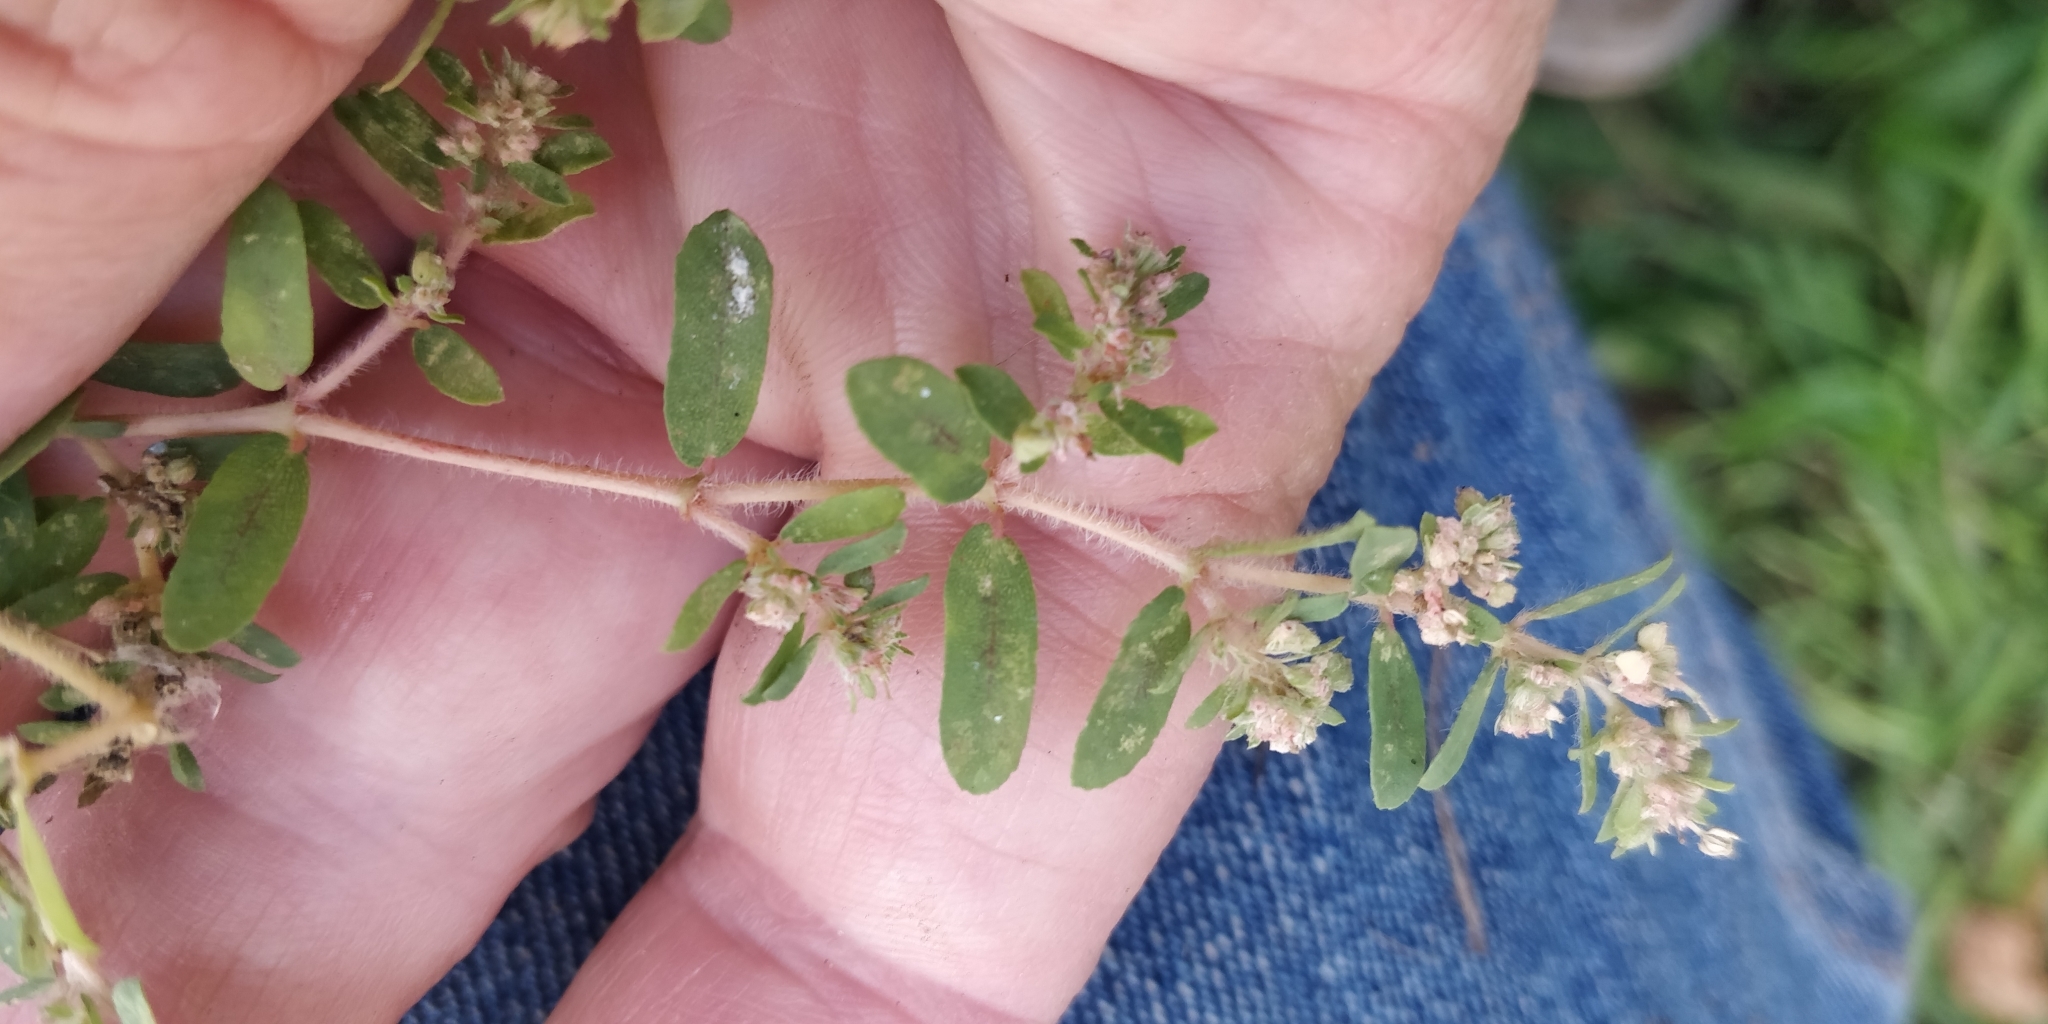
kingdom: Plantae
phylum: Tracheophyta
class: Magnoliopsida
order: Malpighiales
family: Euphorbiaceae
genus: Euphorbia
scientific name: Euphorbia maculata
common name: Spotted spurge
